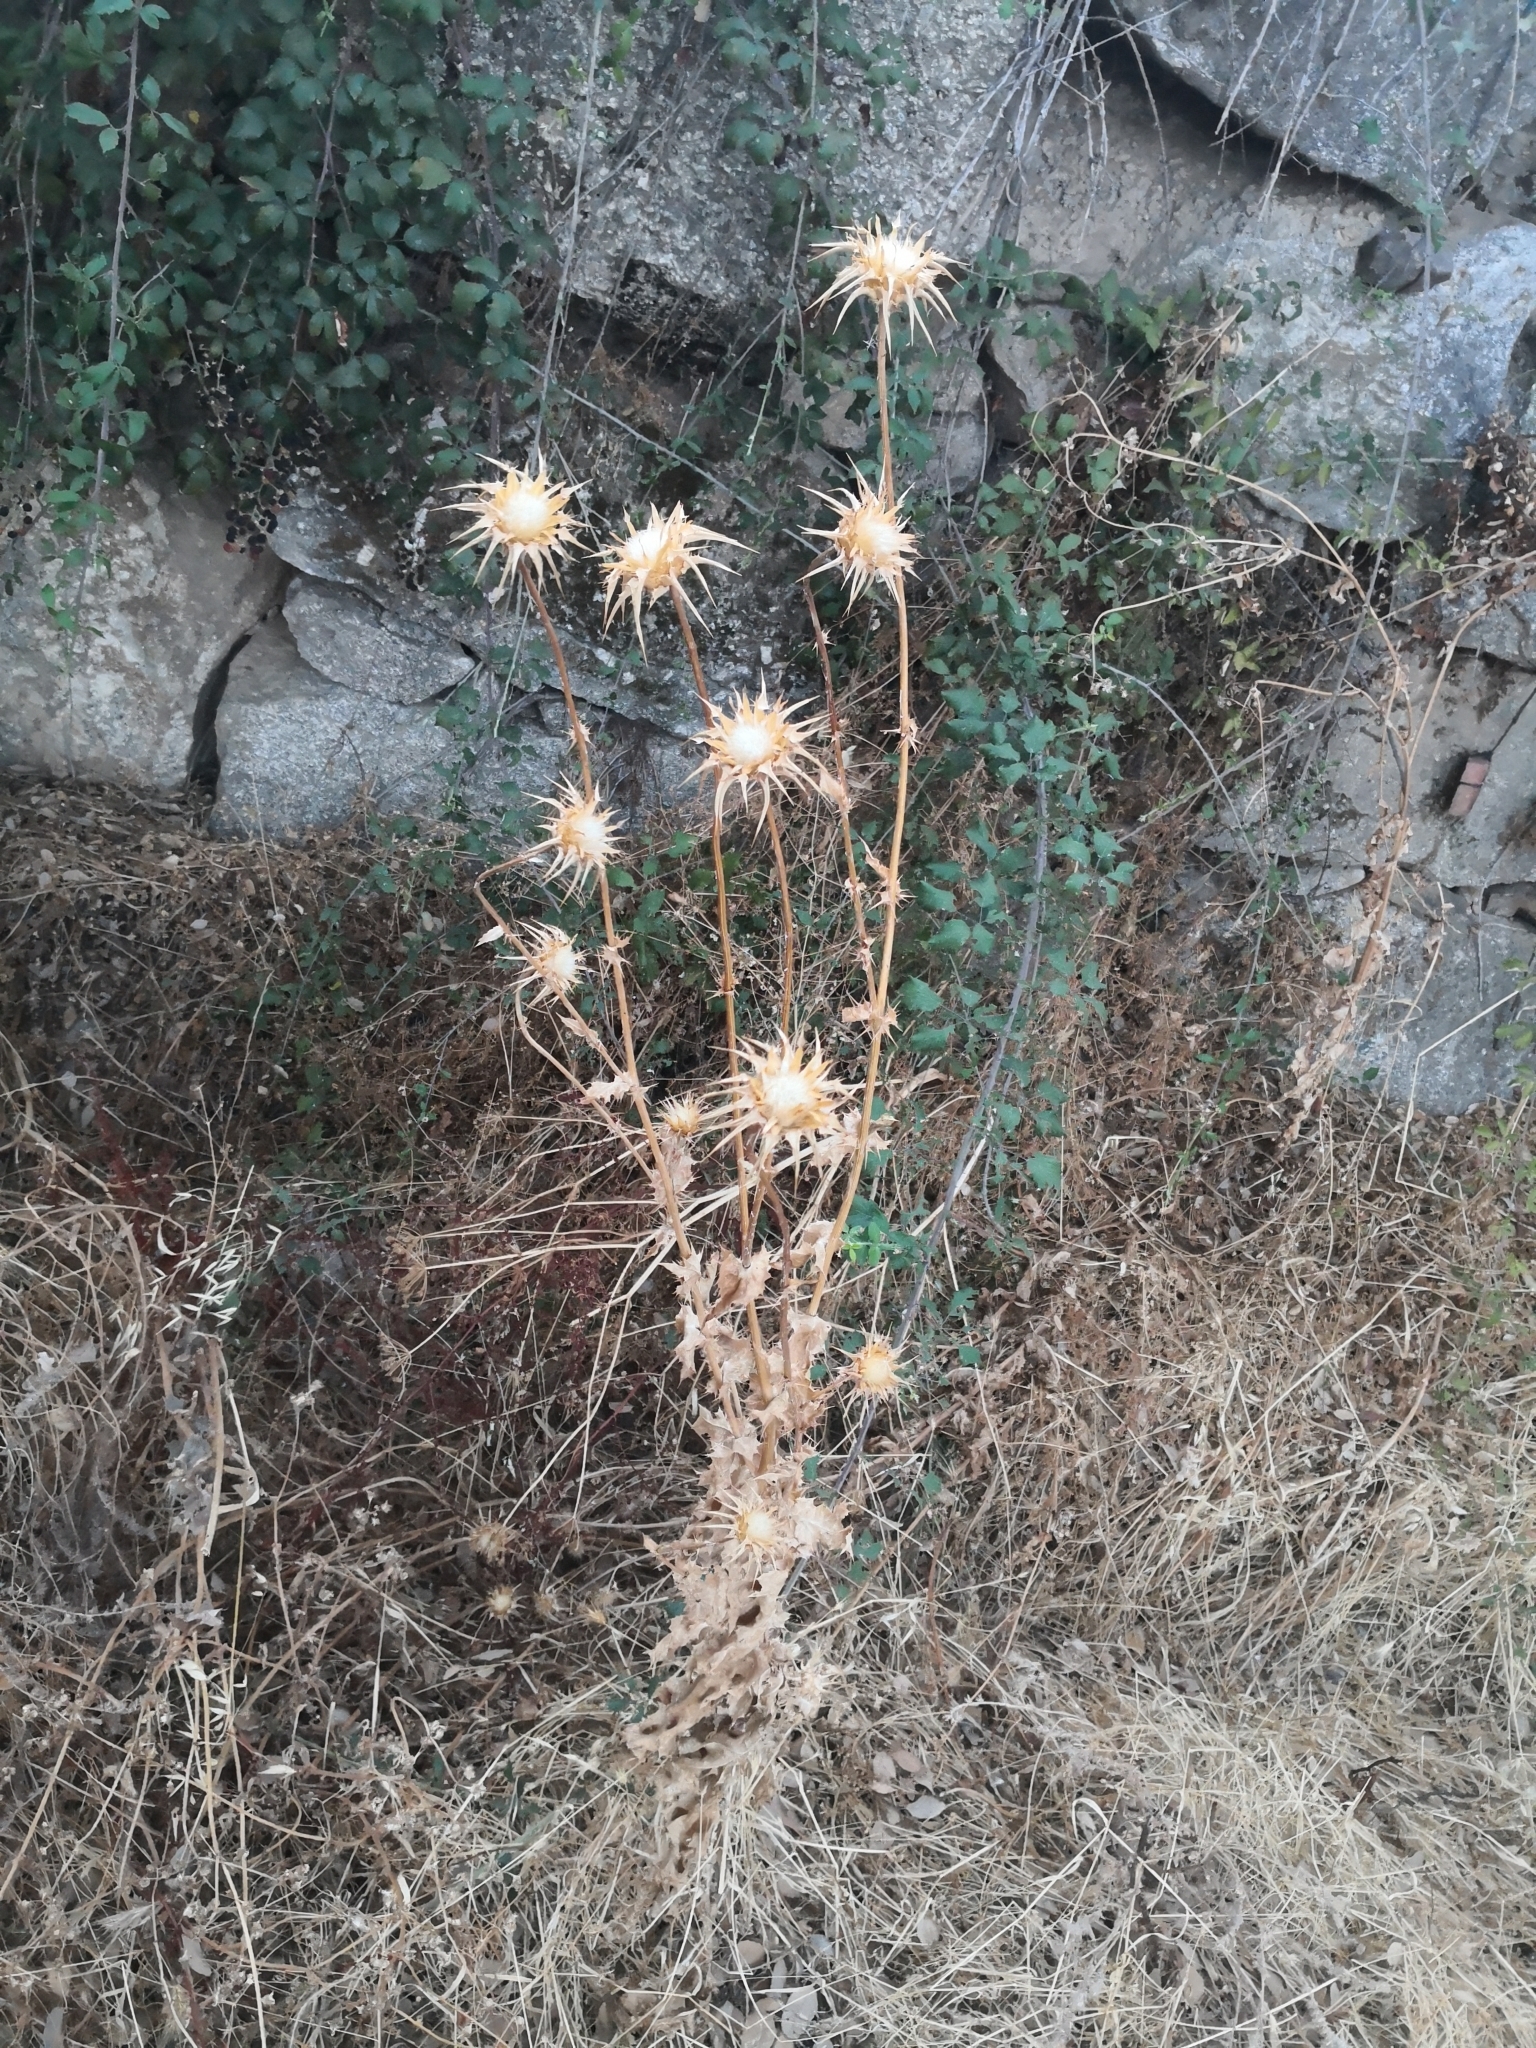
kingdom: Plantae
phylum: Tracheophyta
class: Magnoliopsida
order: Asterales
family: Asteraceae
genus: Silybum
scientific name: Silybum marianum
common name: Milk thistle
